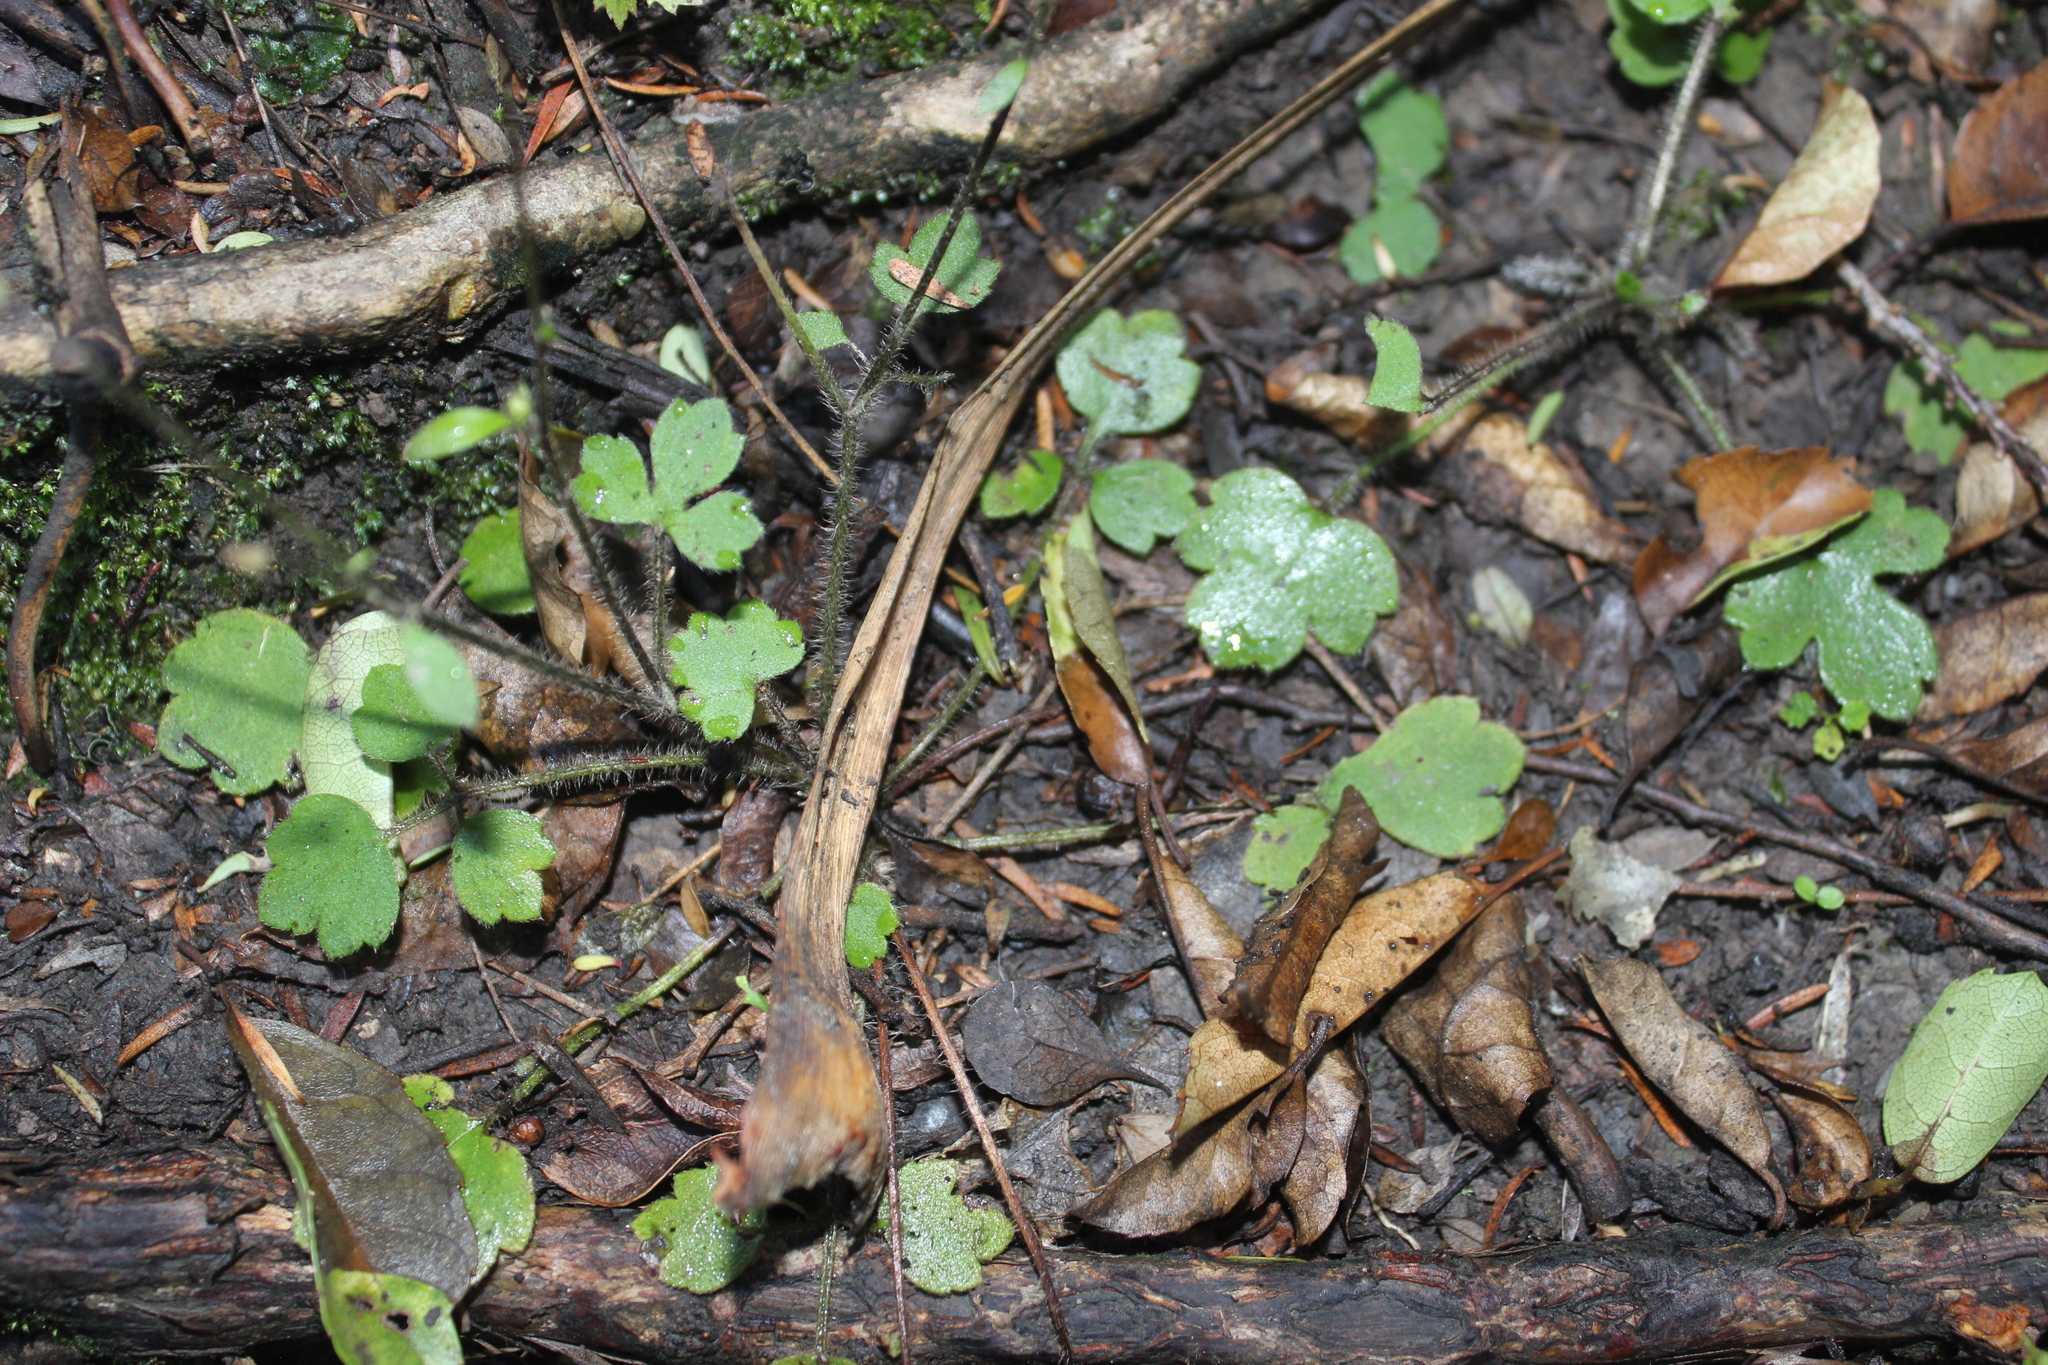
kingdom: Plantae
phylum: Tracheophyta
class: Magnoliopsida
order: Ranunculales
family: Ranunculaceae
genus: Ranunculus
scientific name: Ranunculus reflexus
